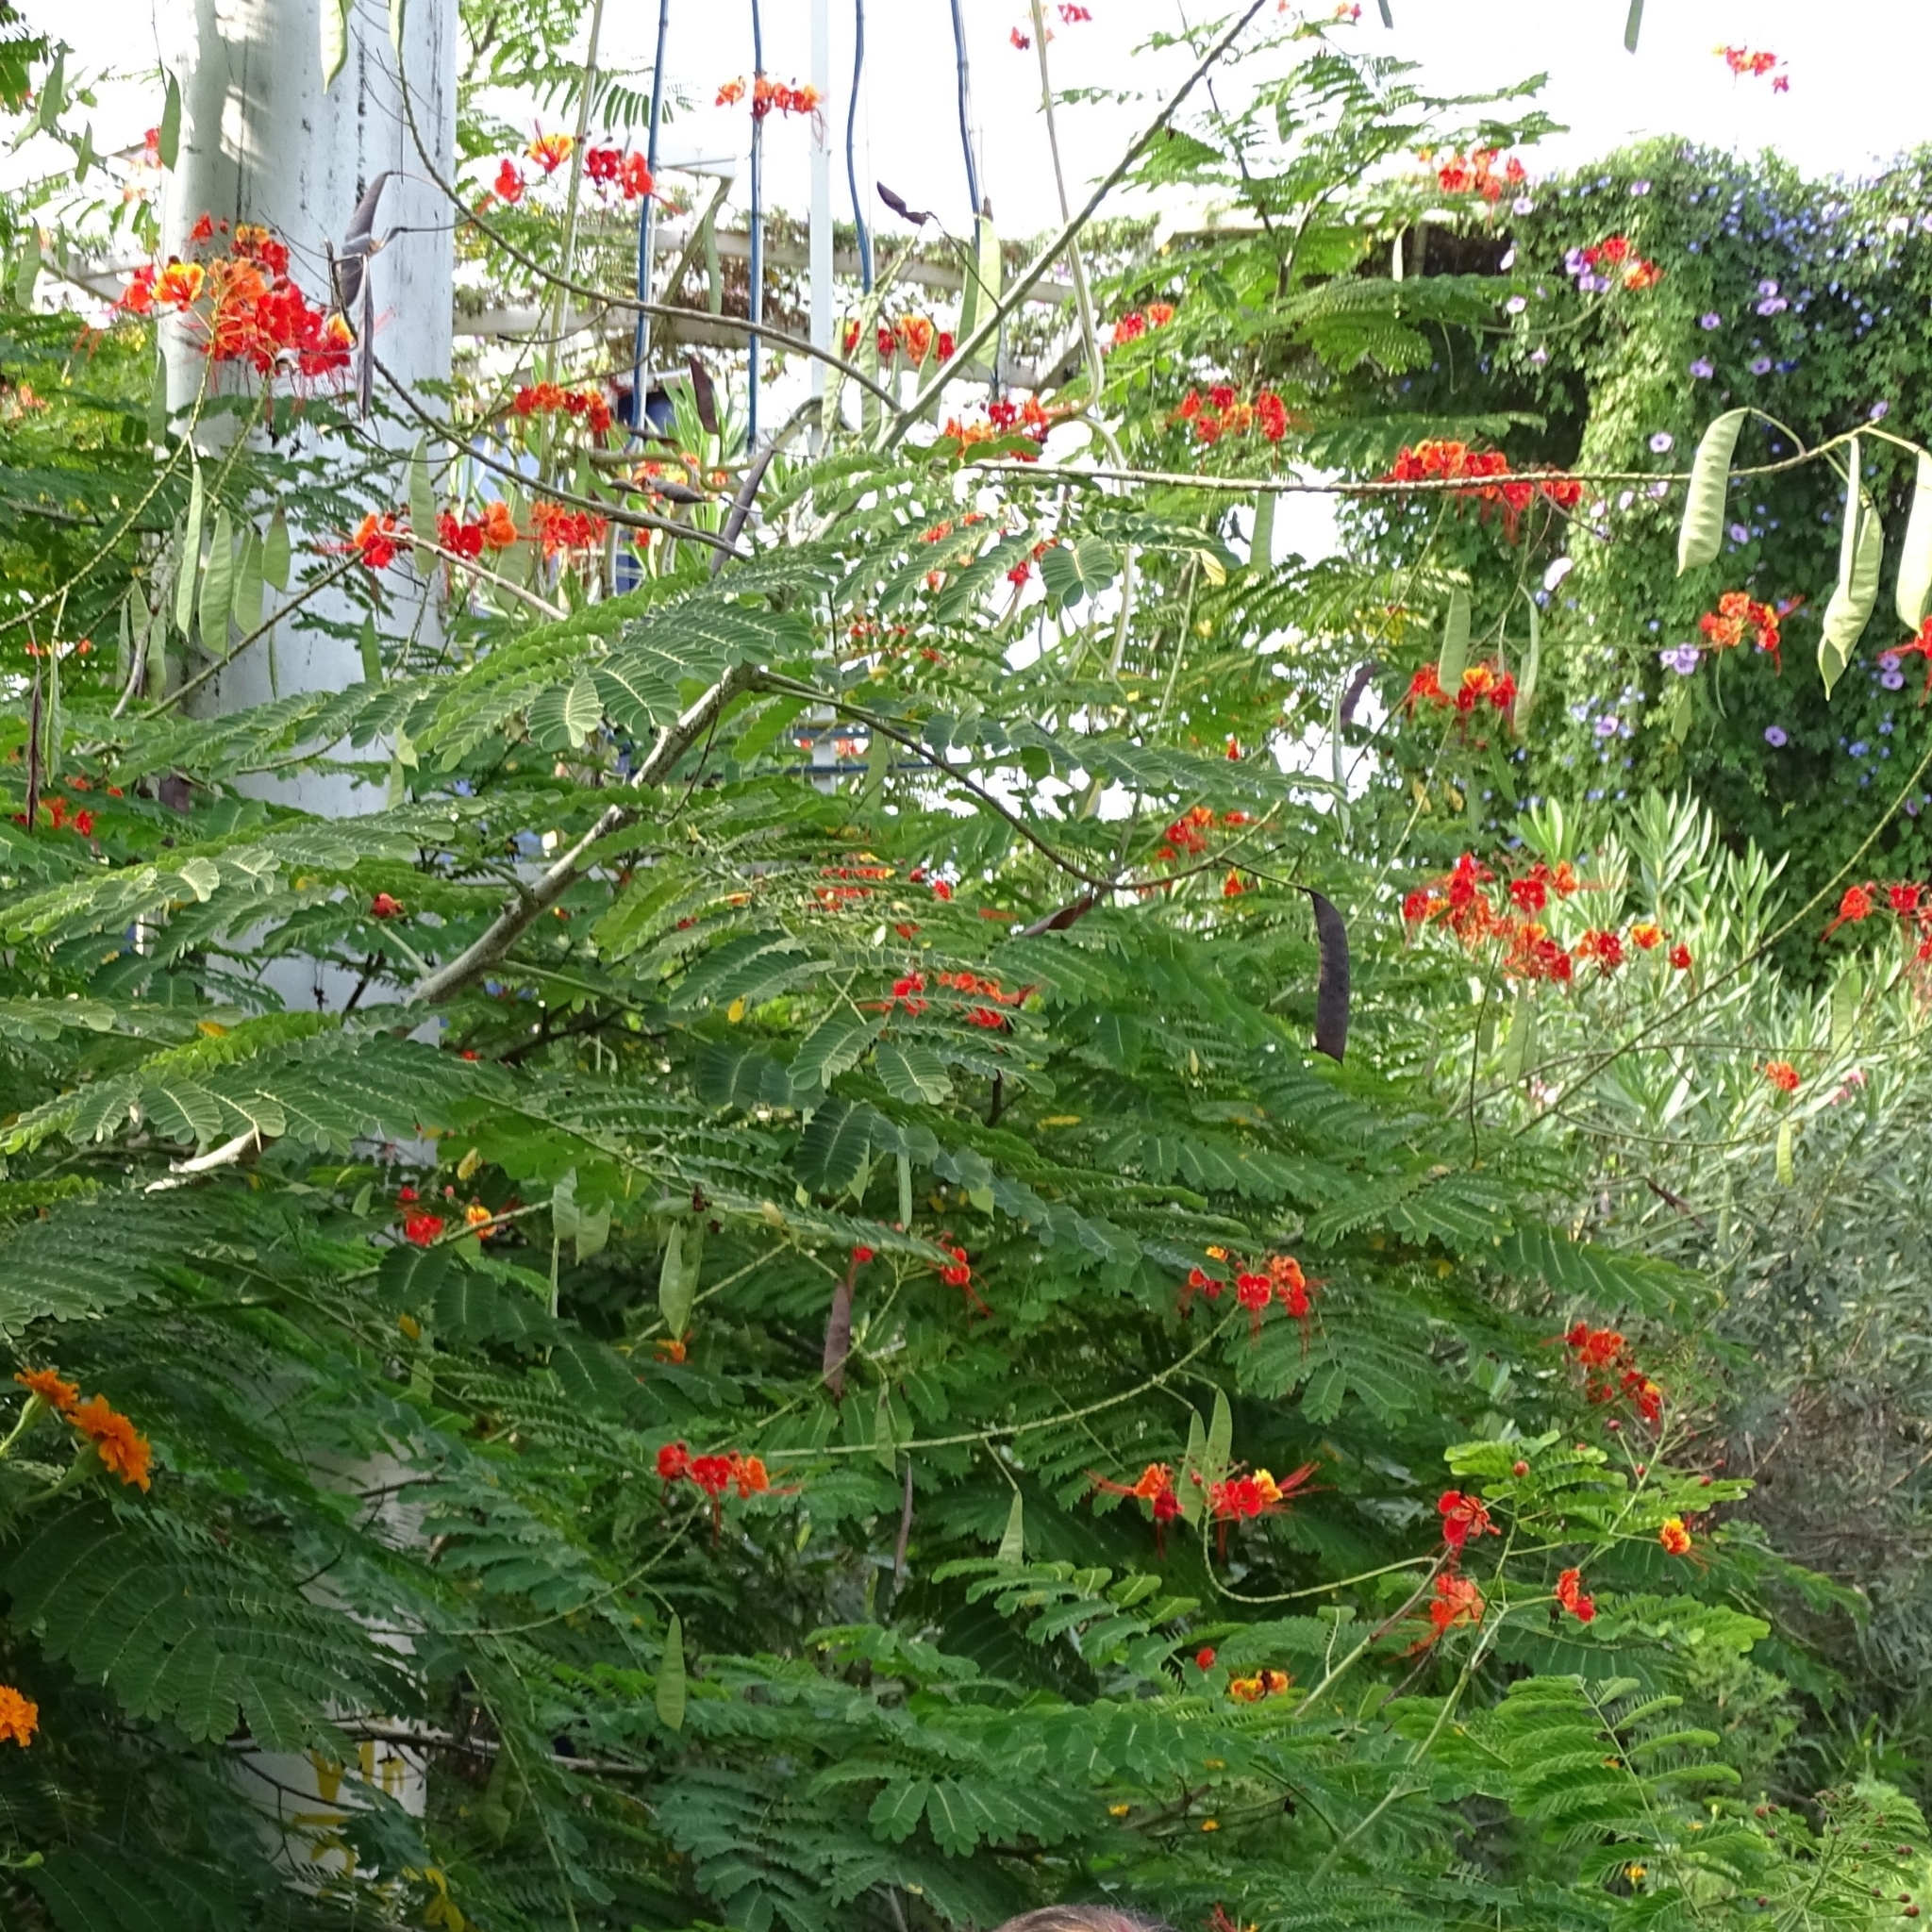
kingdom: Plantae
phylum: Tracheophyta
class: Magnoliopsida
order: Fabales
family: Fabaceae
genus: Caesalpinia
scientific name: Caesalpinia pulcherrima
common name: Pride-of-barbados
